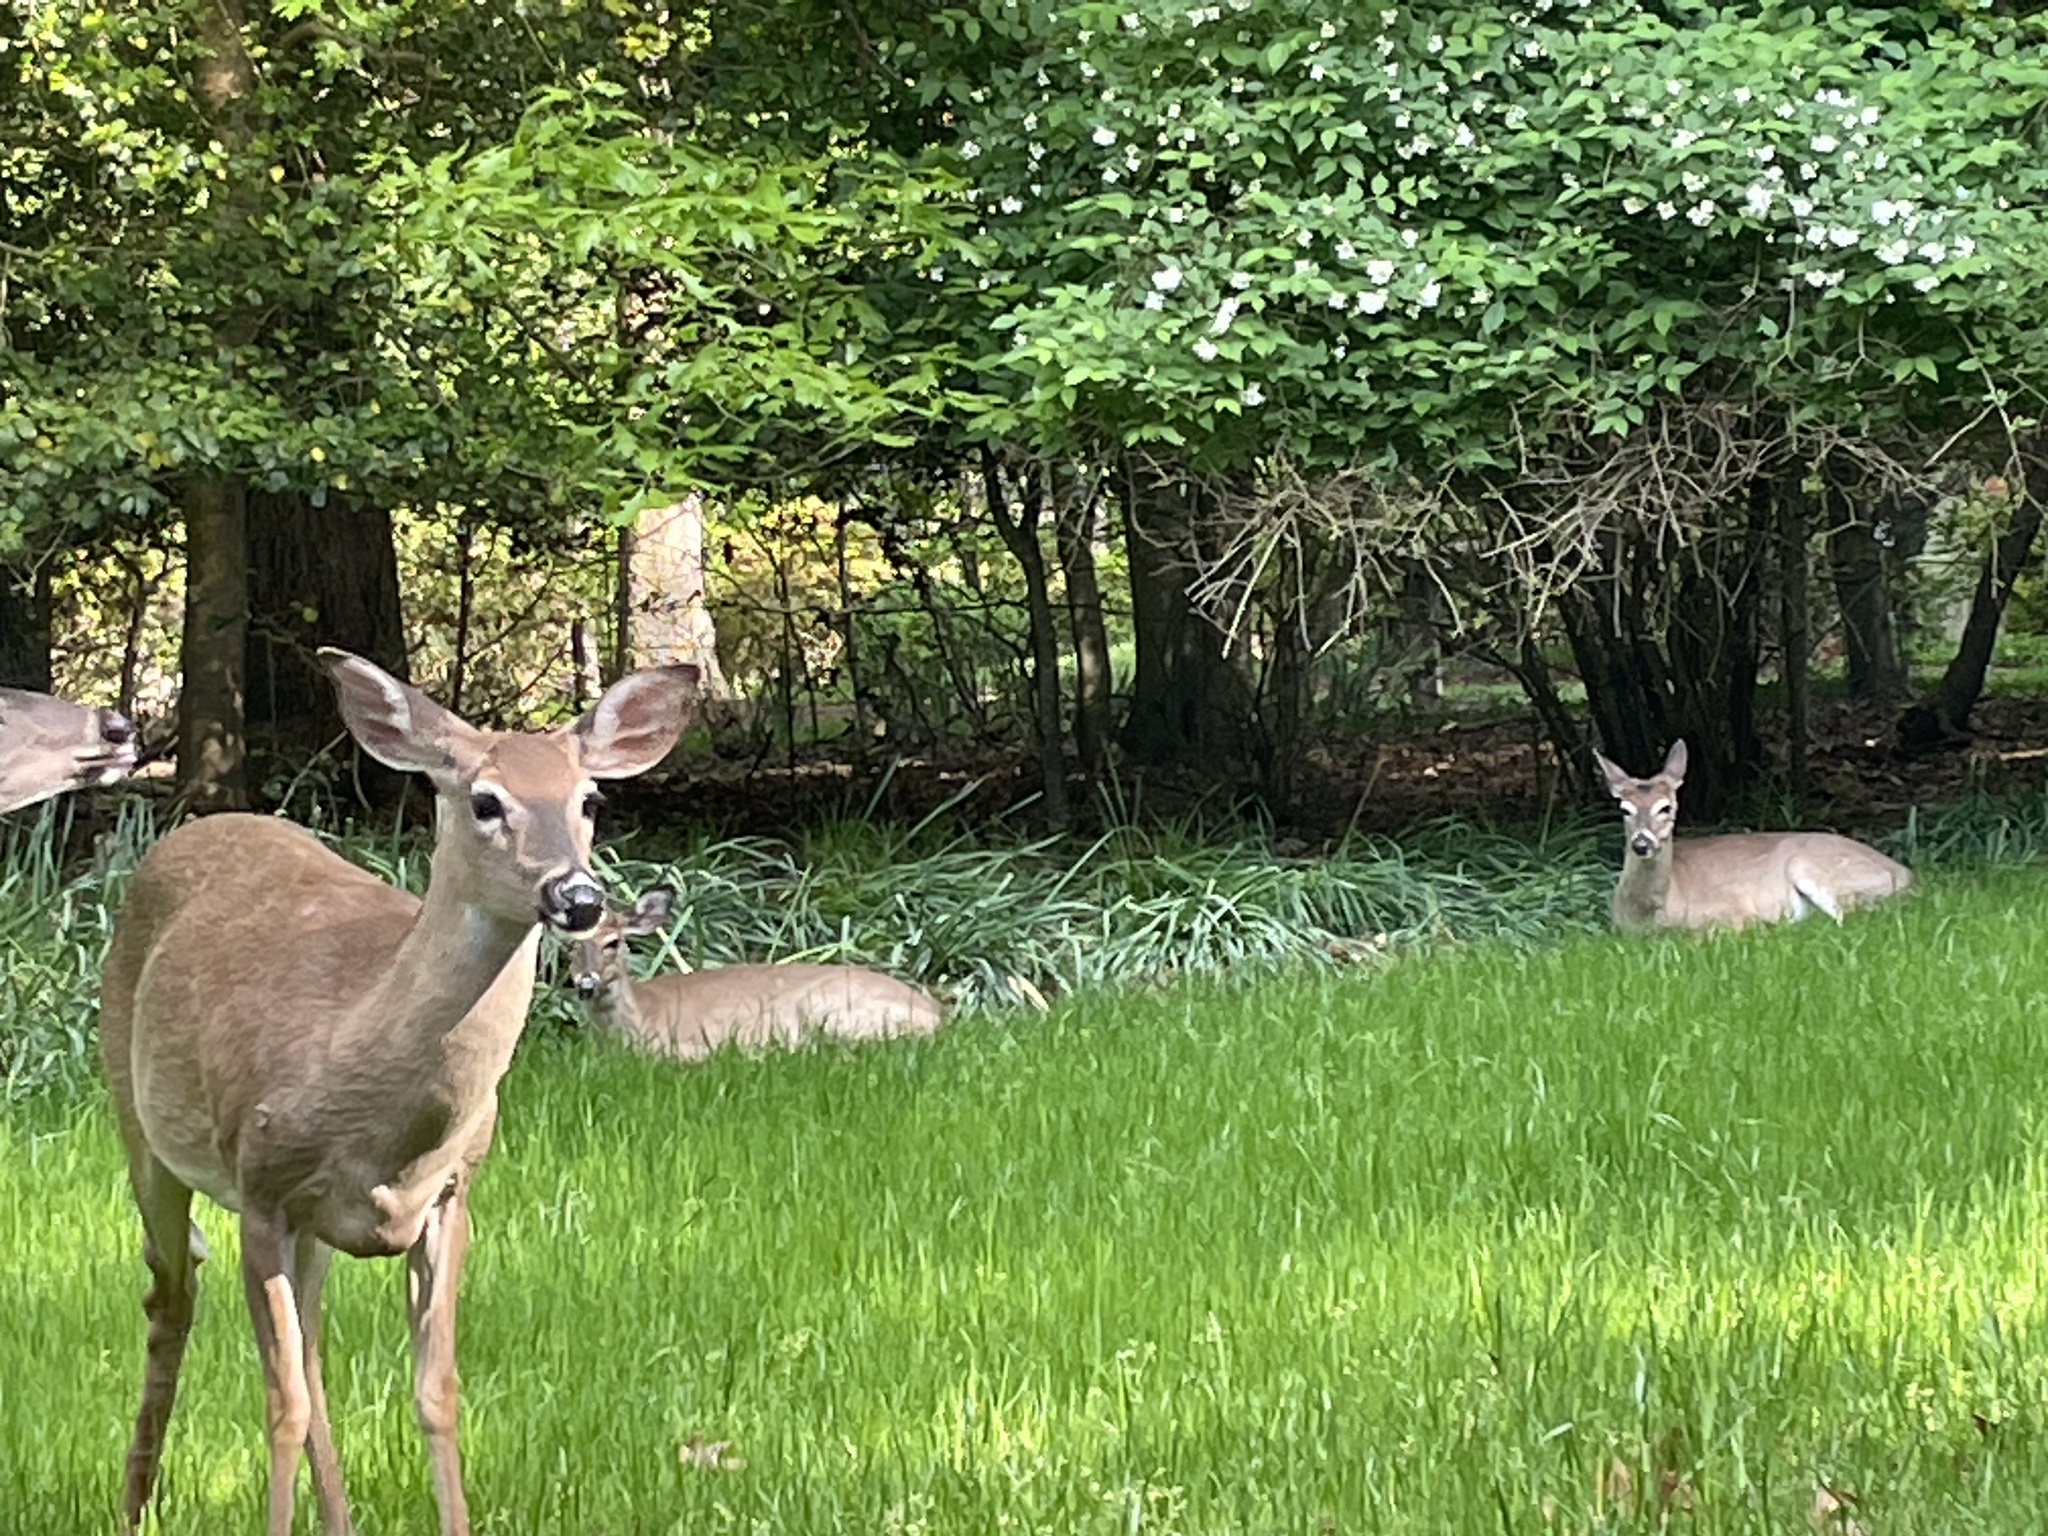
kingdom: Animalia
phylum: Chordata
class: Mammalia
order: Artiodactyla
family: Cervidae
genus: Odocoileus
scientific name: Odocoileus virginianus
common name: White-tailed deer
